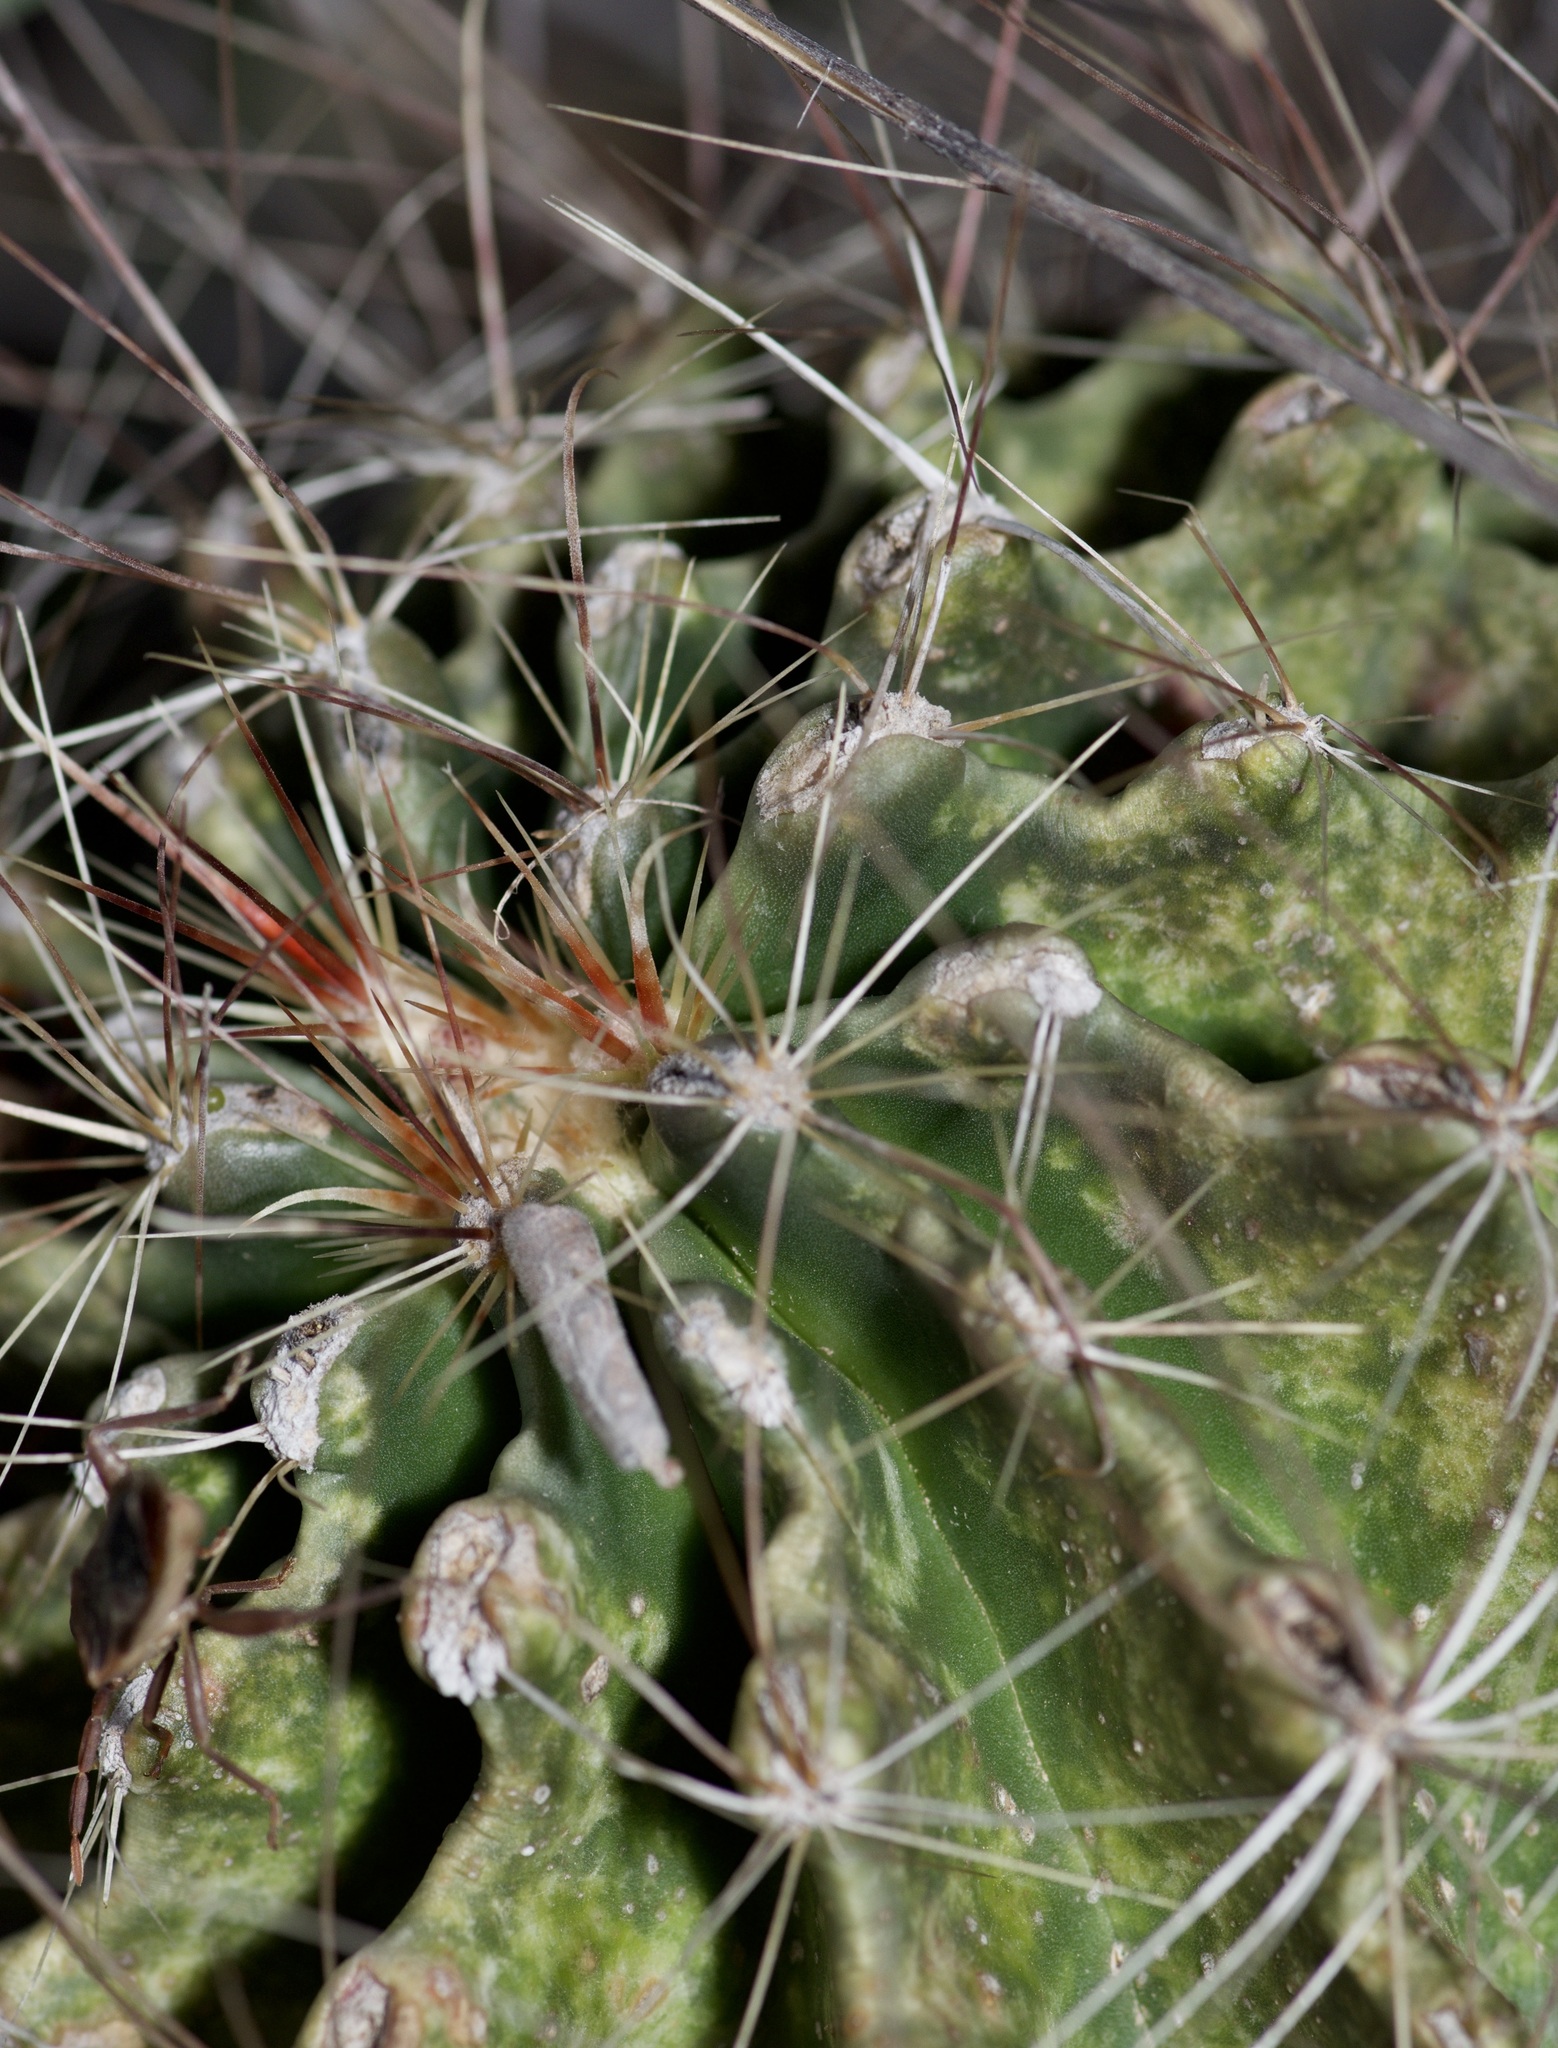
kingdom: Plantae
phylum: Tracheophyta
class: Magnoliopsida
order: Caryophyllales
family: Cactaceae
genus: Thelocactus
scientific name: Thelocactus setispinus
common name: Miniature barrel cactus
